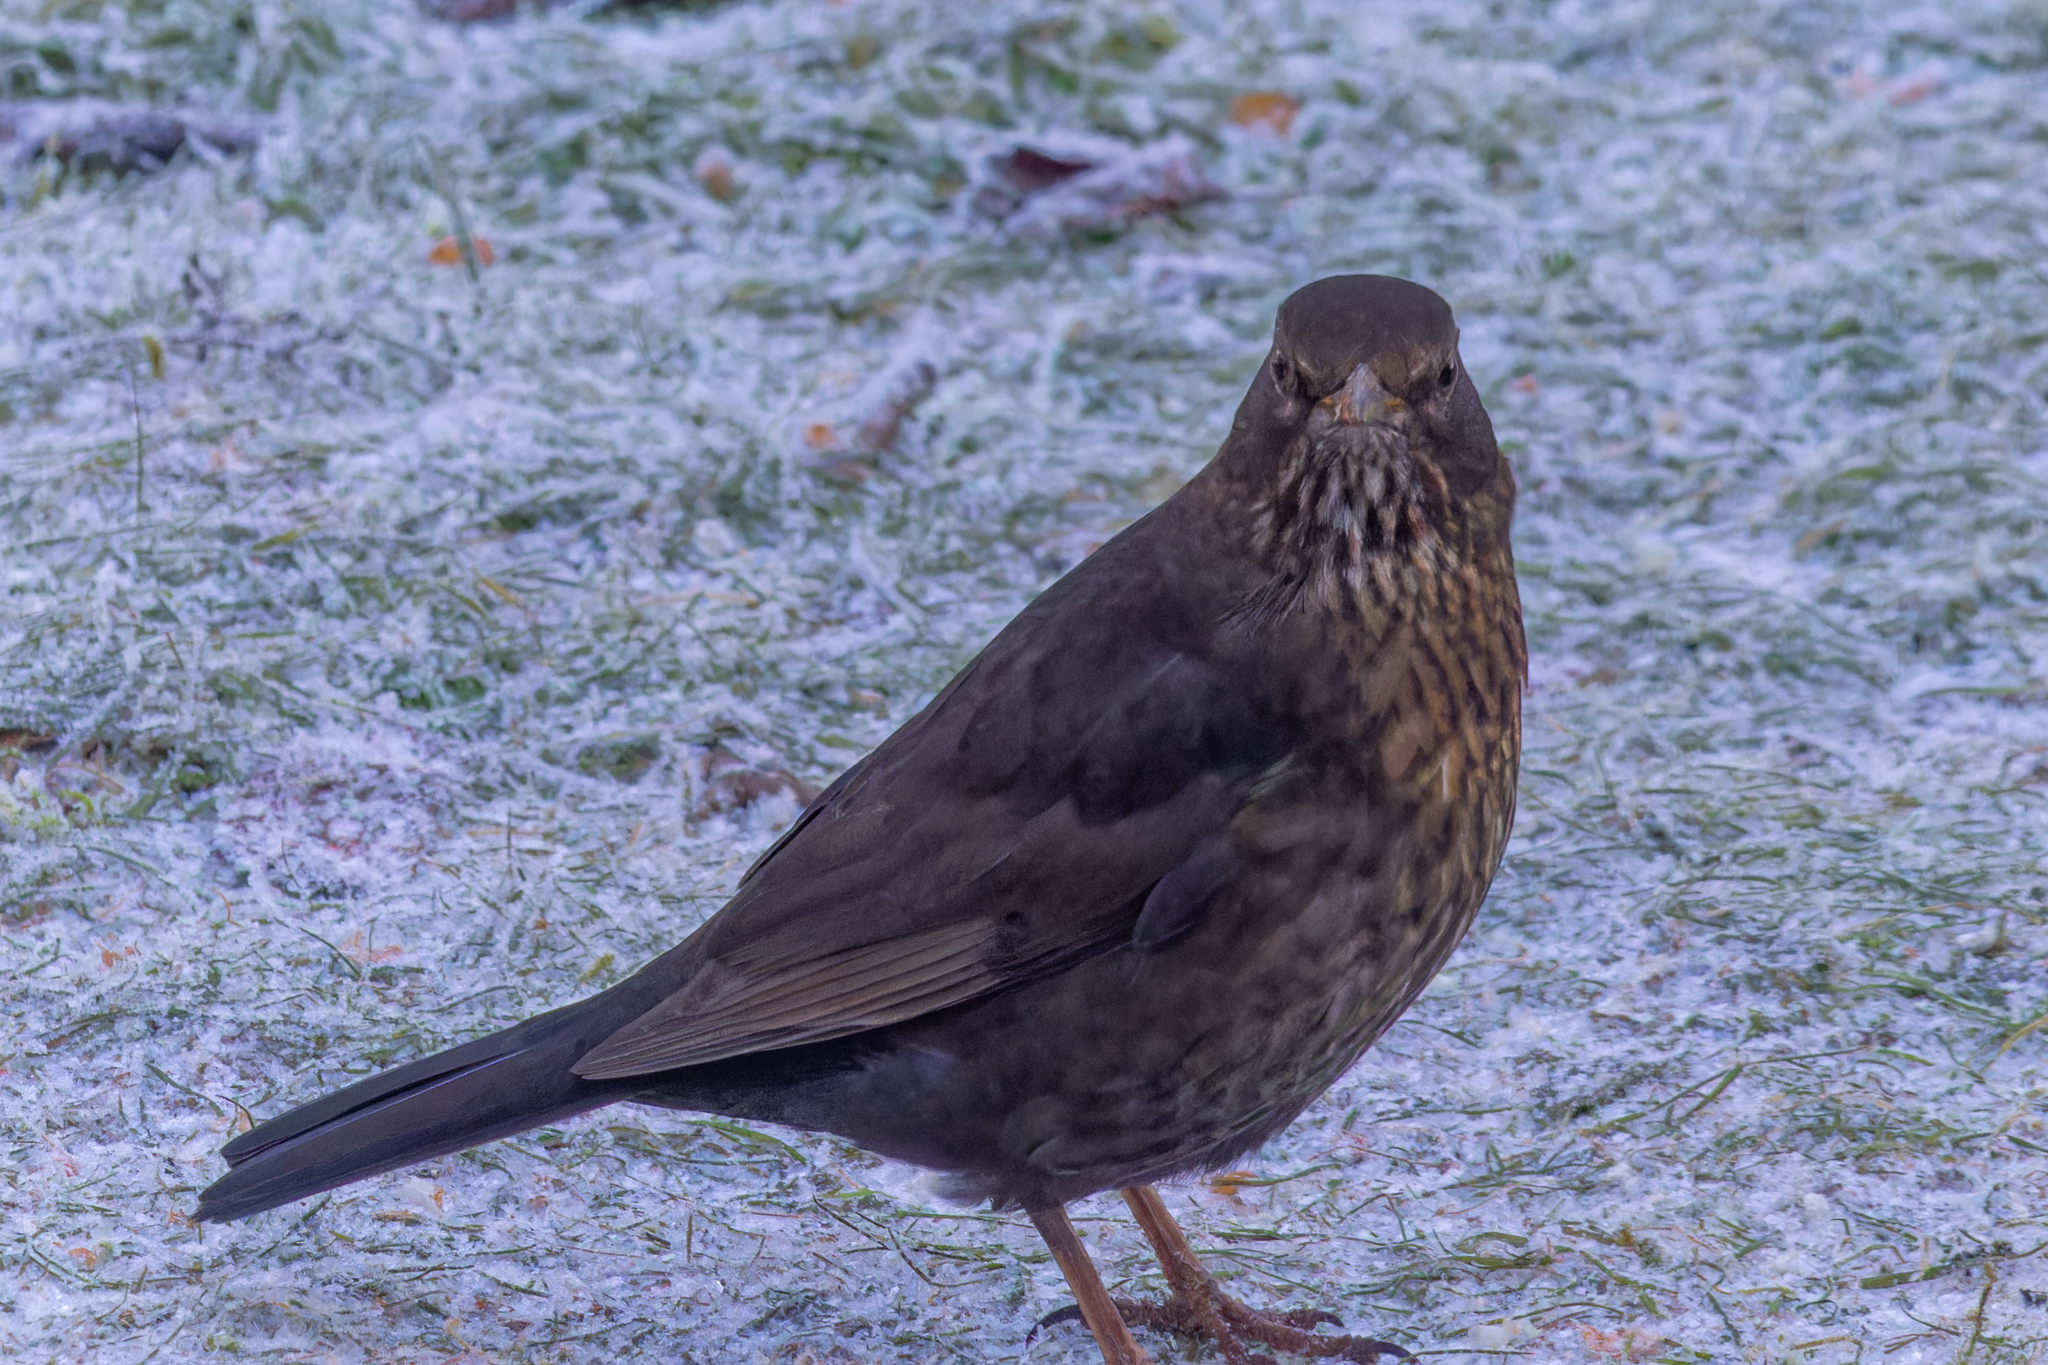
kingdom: Animalia
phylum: Chordata
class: Aves
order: Passeriformes
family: Turdidae
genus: Turdus
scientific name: Turdus merula
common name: Common blackbird
